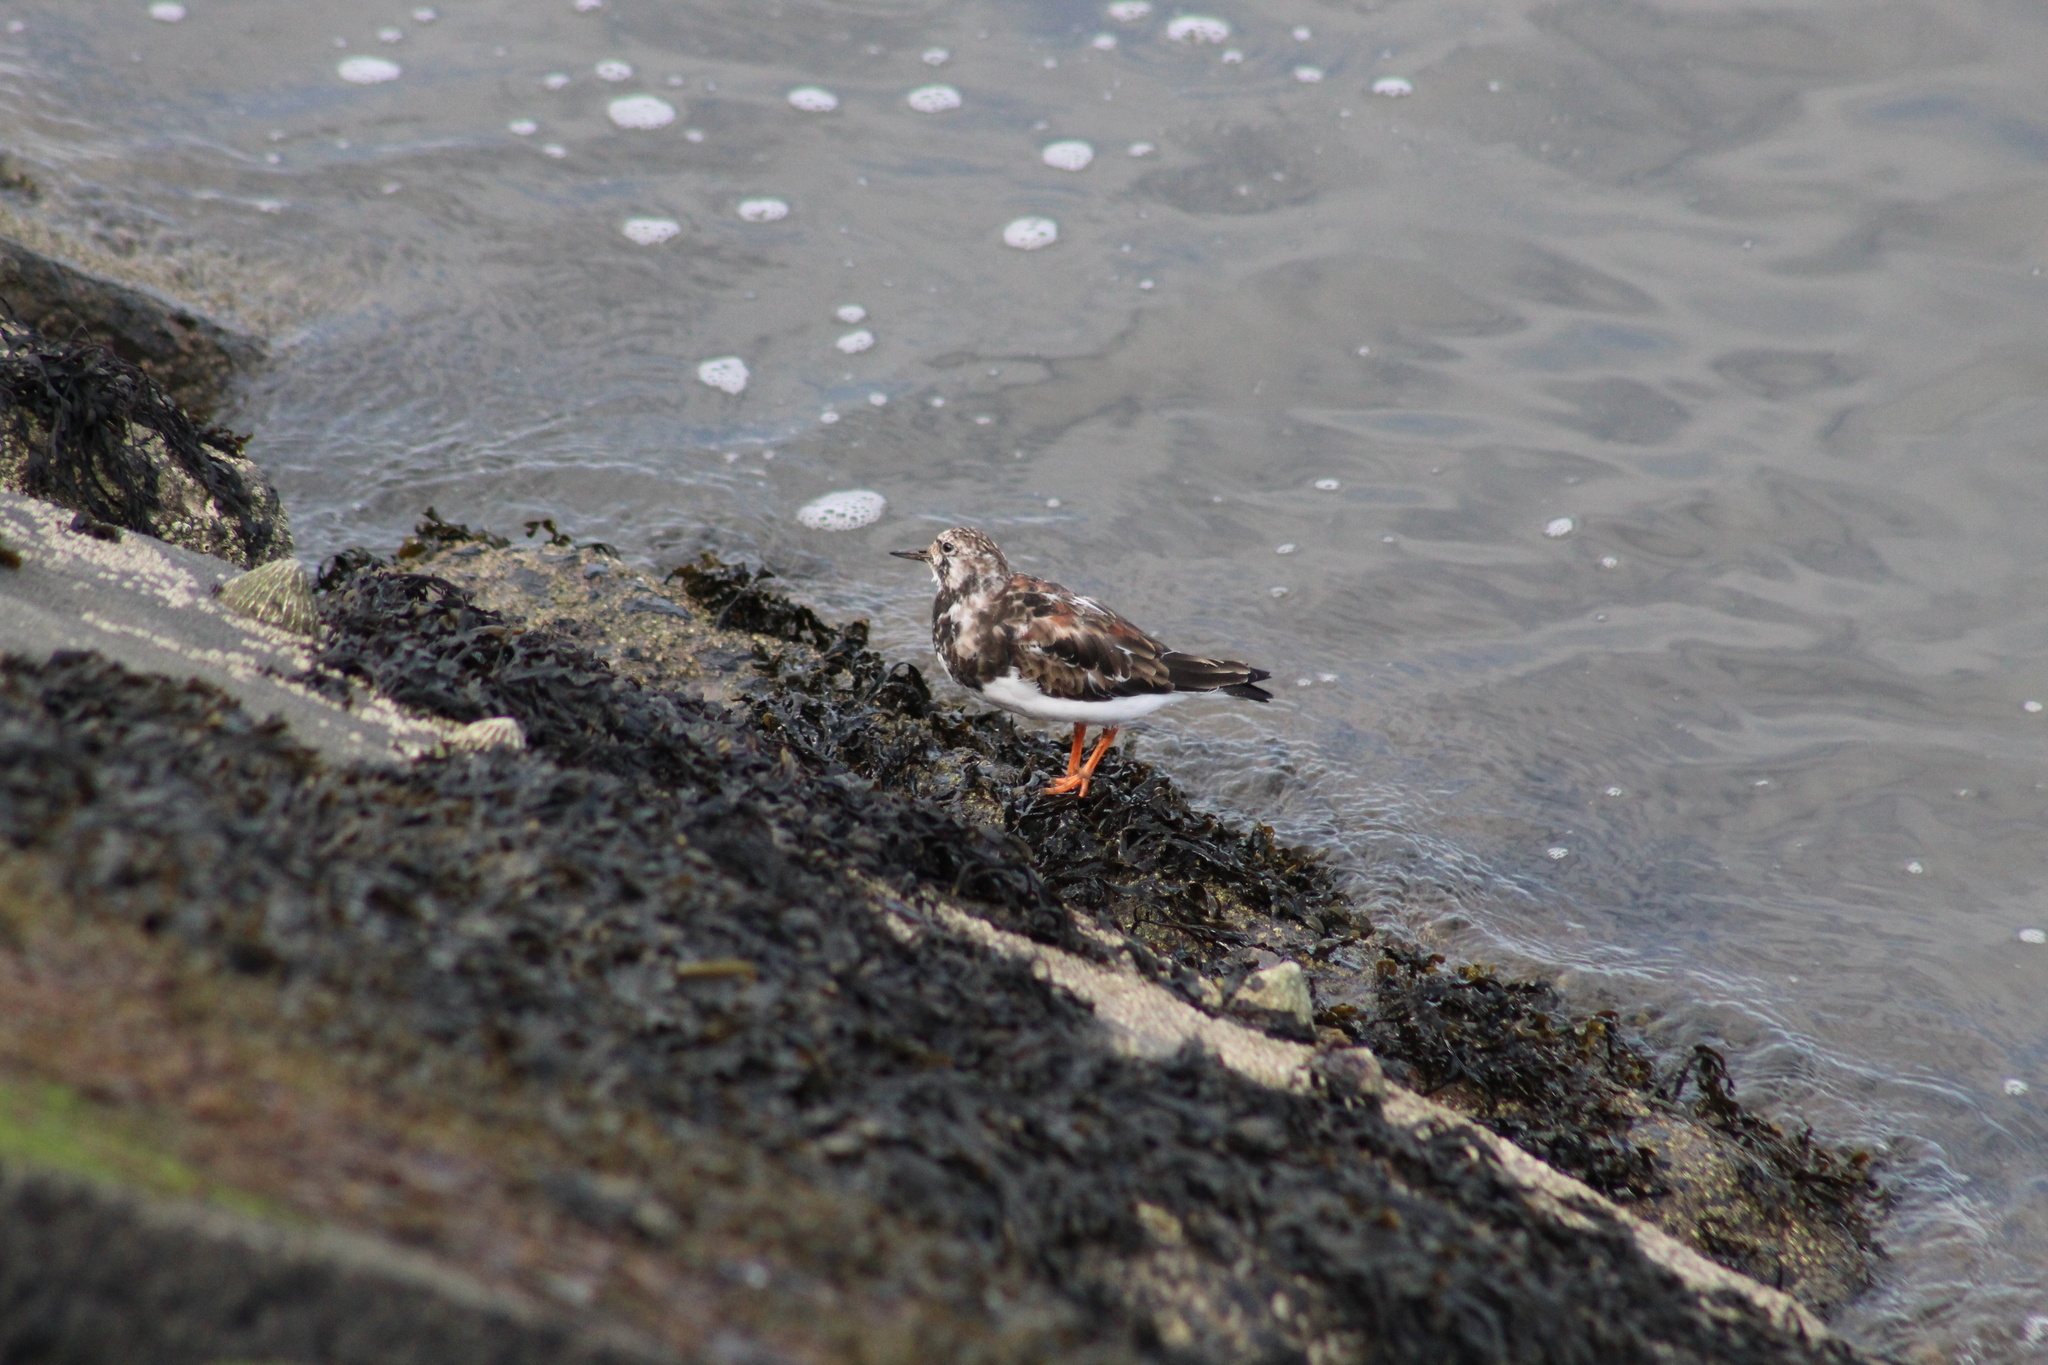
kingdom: Animalia
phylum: Chordata
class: Aves
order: Charadriiformes
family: Scolopacidae
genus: Arenaria
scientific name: Arenaria interpres
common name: Ruddy turnstone
